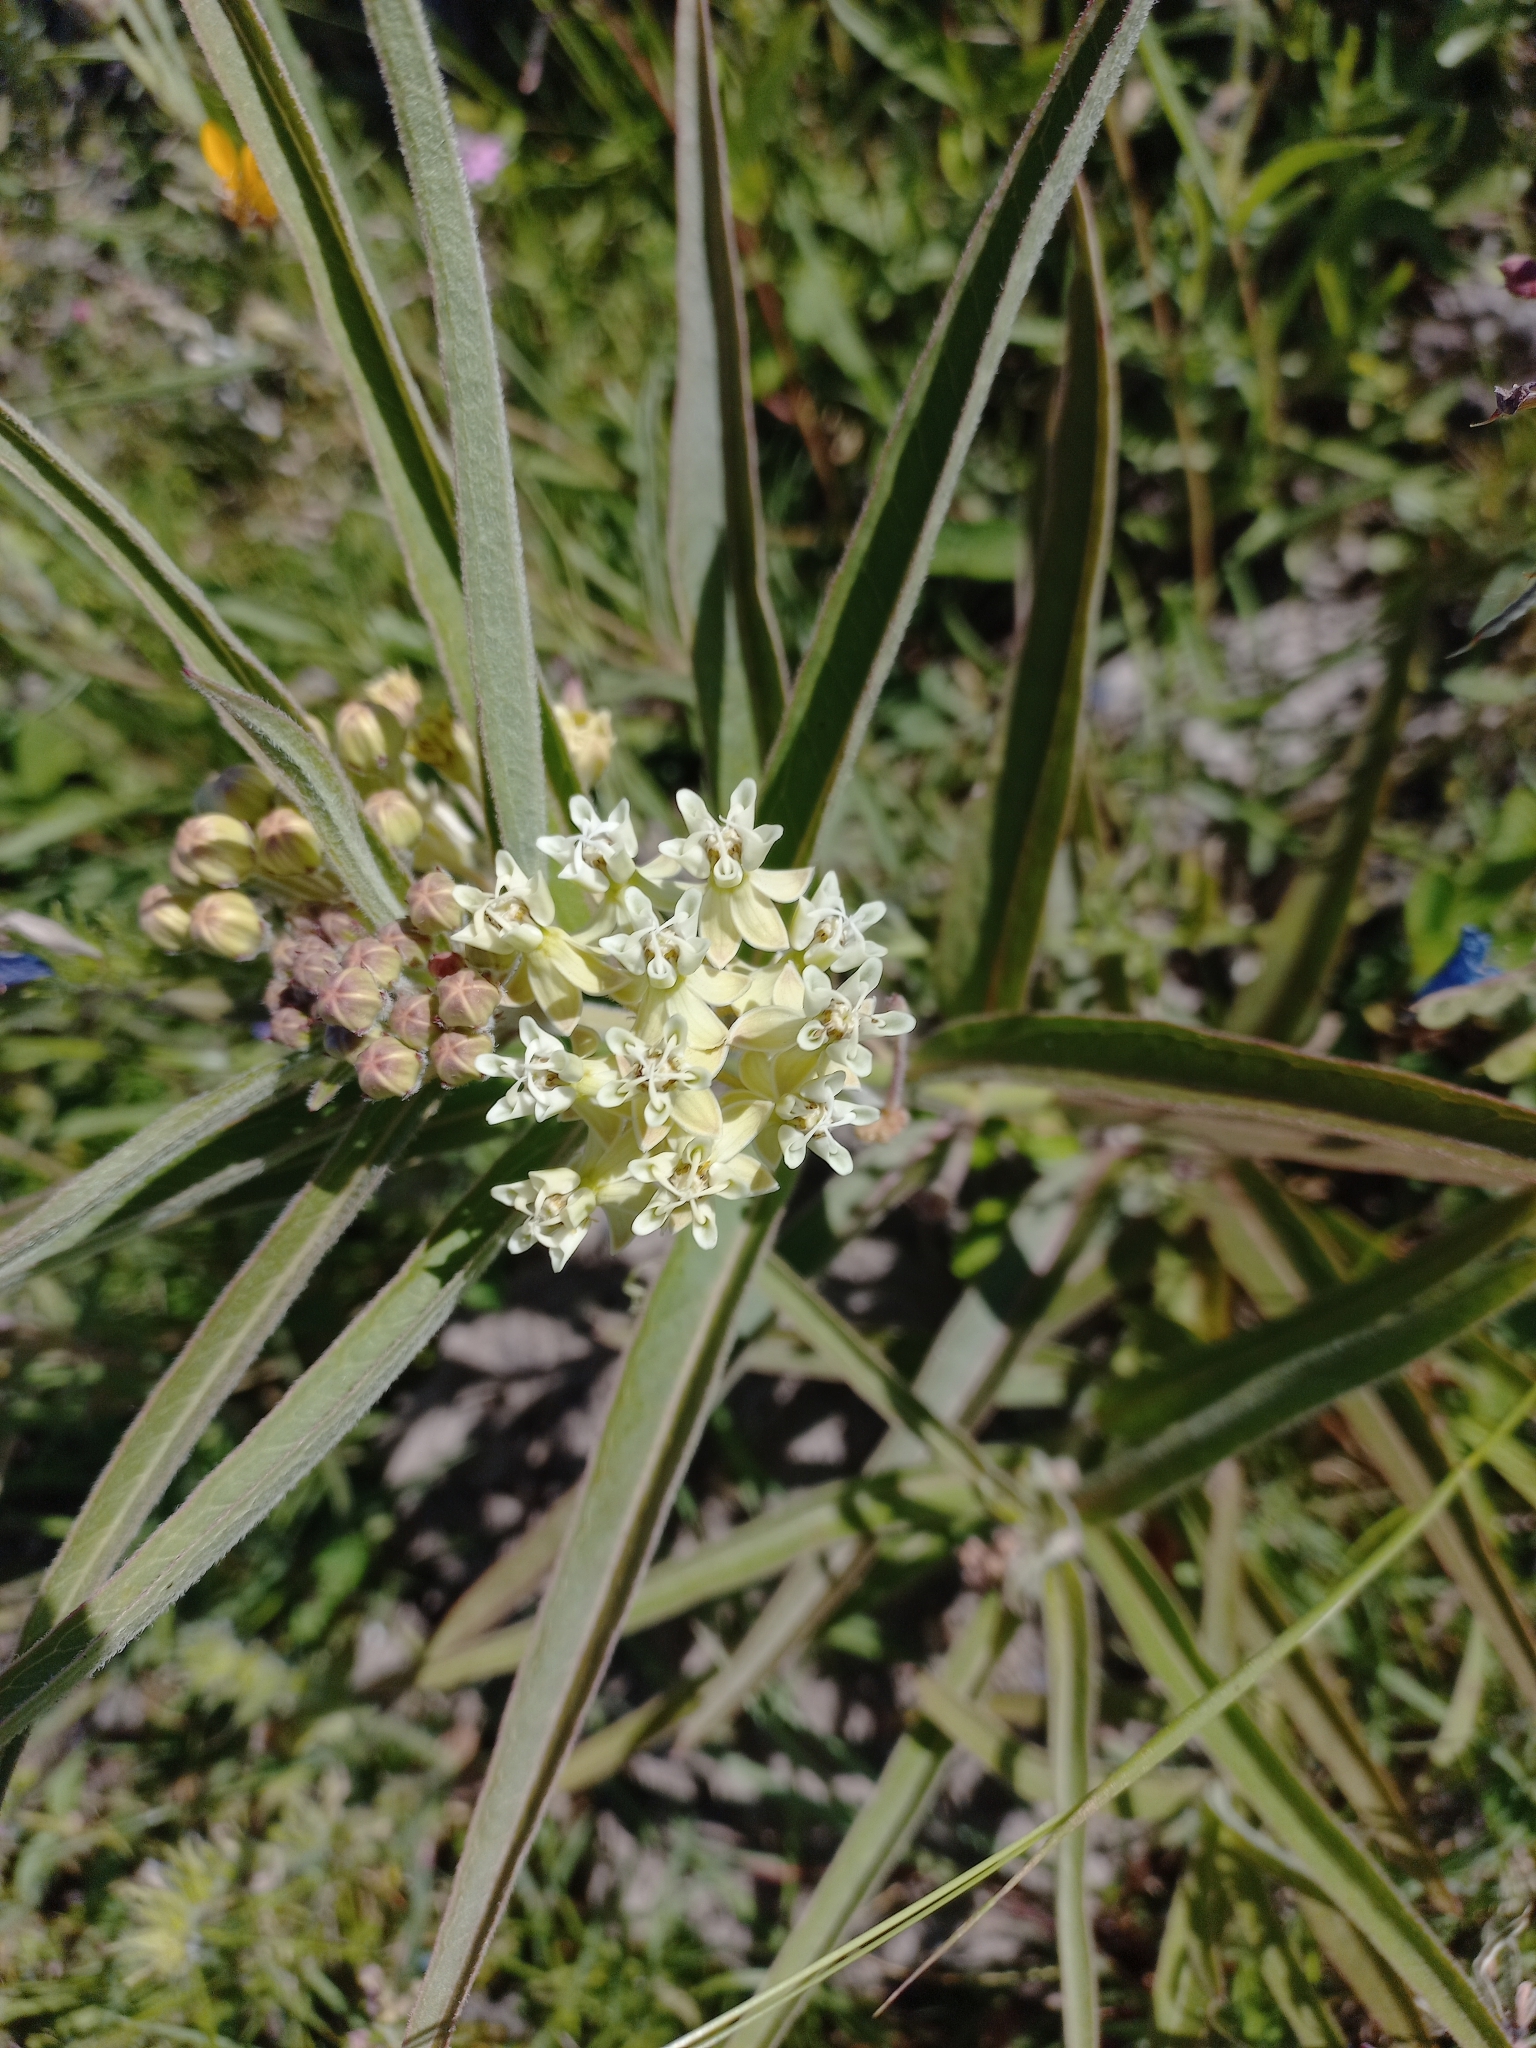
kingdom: Plantae
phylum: Tracheophyta
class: Magnoliopsida
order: Gentianales
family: Apocynaceae
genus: Asclepias
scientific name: Asclepias mellodora
